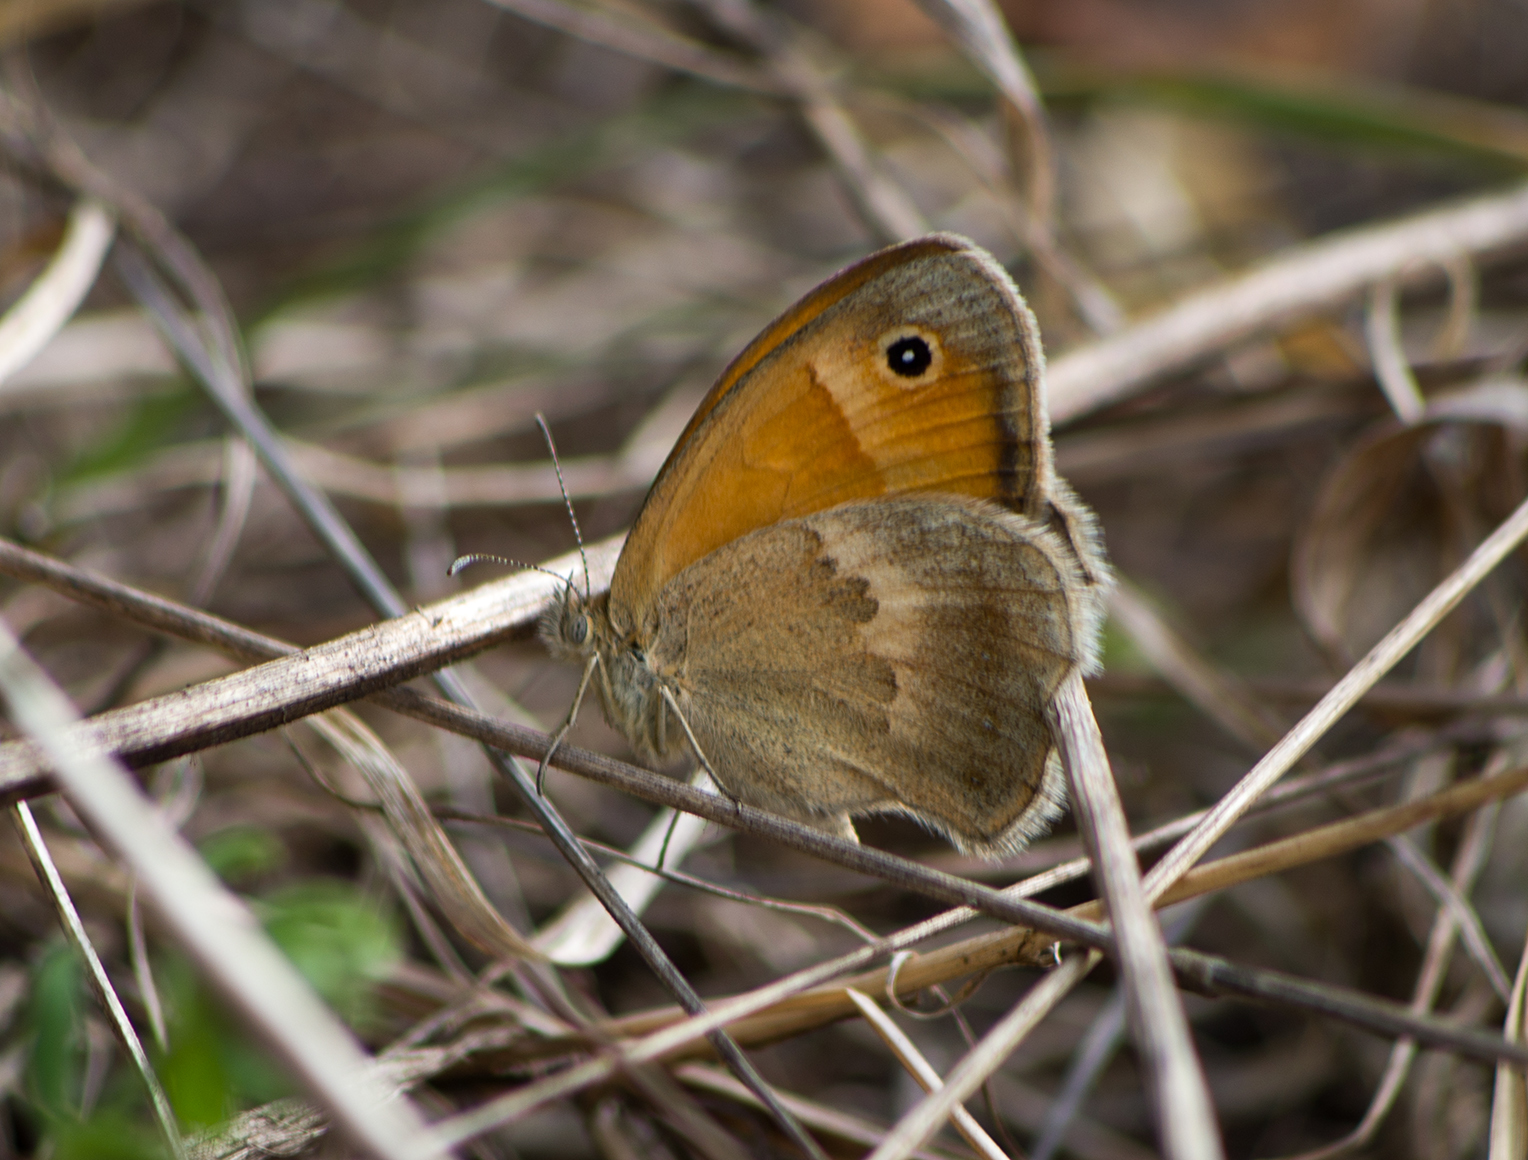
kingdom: Animalia
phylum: Arthropoda
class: Insecta
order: Lepidoptera
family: Nymphalidae
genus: Coenonympha
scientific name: Coenonympha pamphilus
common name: Small heath
